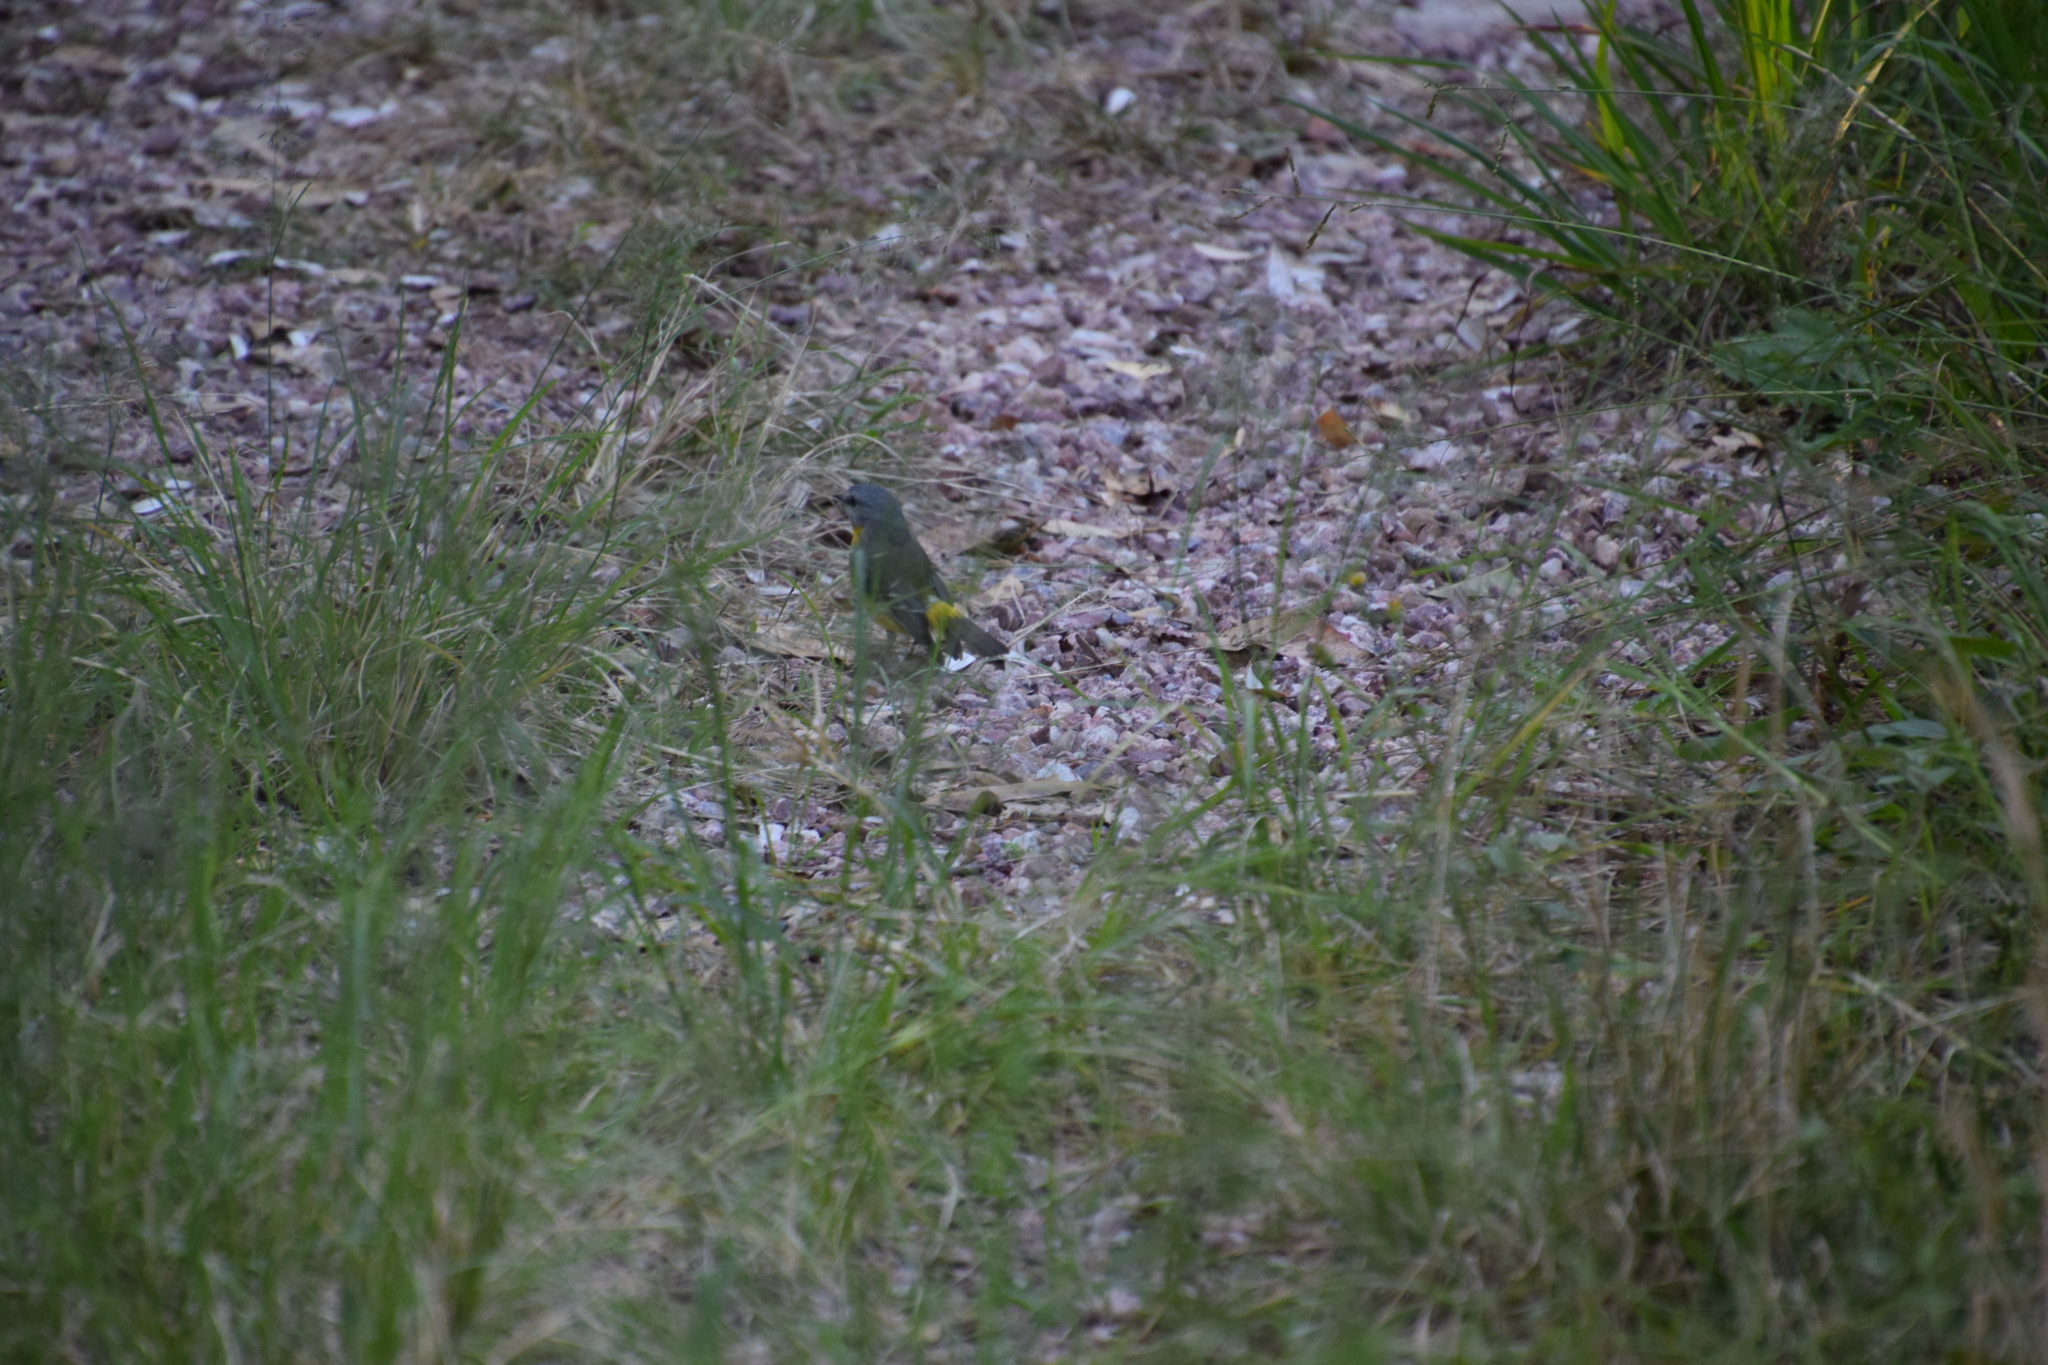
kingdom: Animalia
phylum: Chordata
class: Aves
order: Passeriformes
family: Petroicidae
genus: Eopsaltria
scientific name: Eopsaltria australis
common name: Eastern yellow robin
